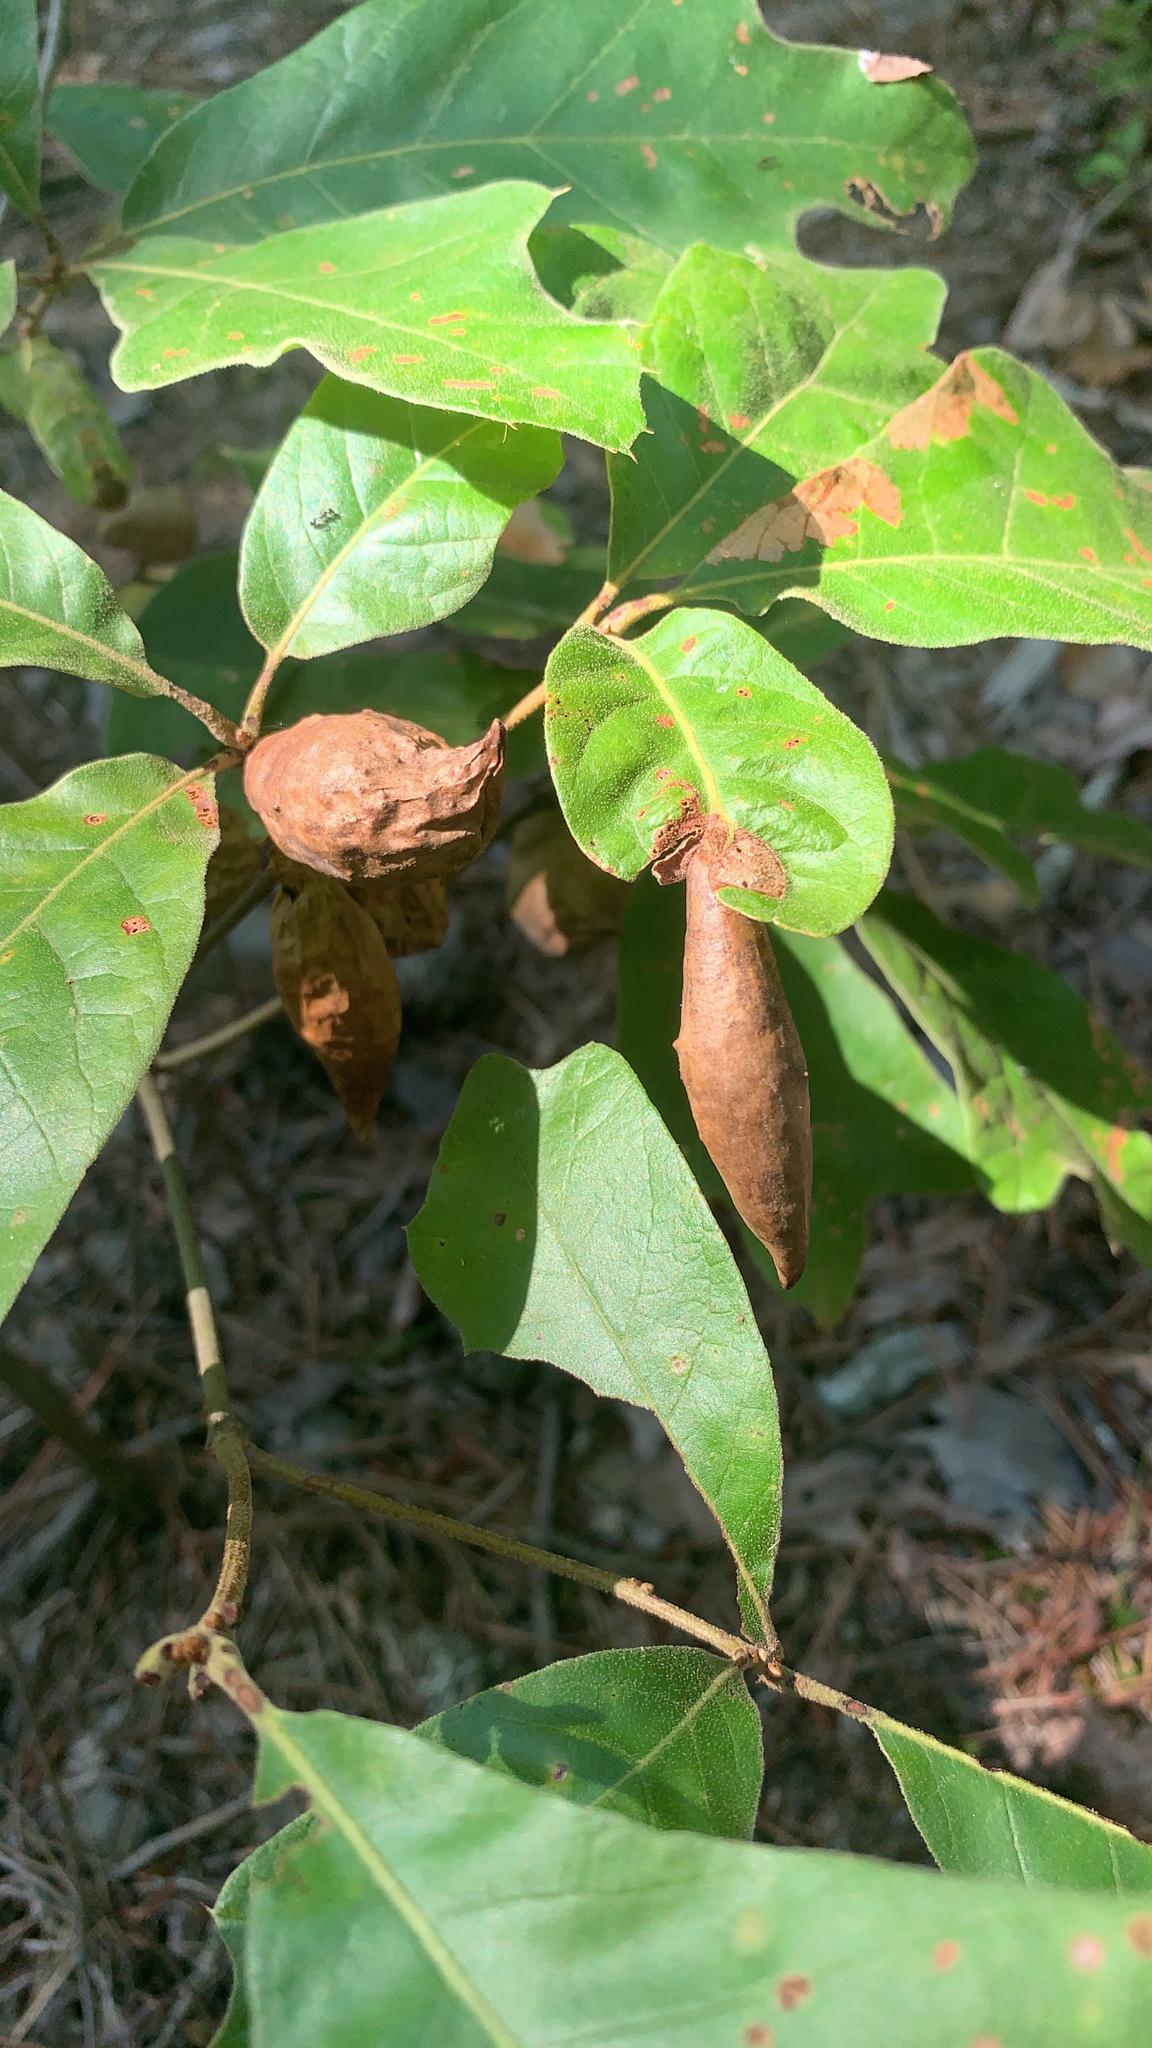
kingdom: Animalia
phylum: Arthropoda
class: Insecta
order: Hymenoptera
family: Cynipidae
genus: Amphibolips
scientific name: Amphibolips
